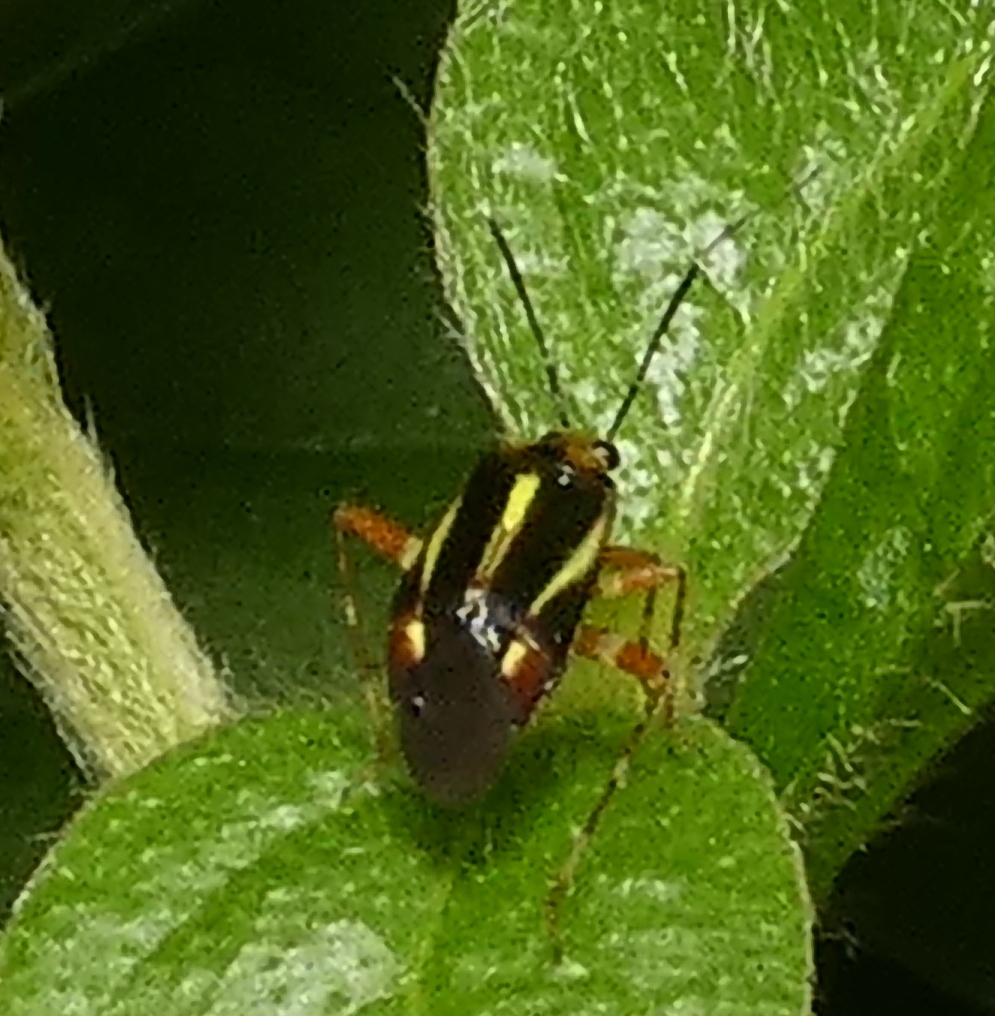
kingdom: Animalia
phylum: Arthropoda
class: Insecta
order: Hemiptera
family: Miridae
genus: Horciasinus
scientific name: Horciasinus signoreti
